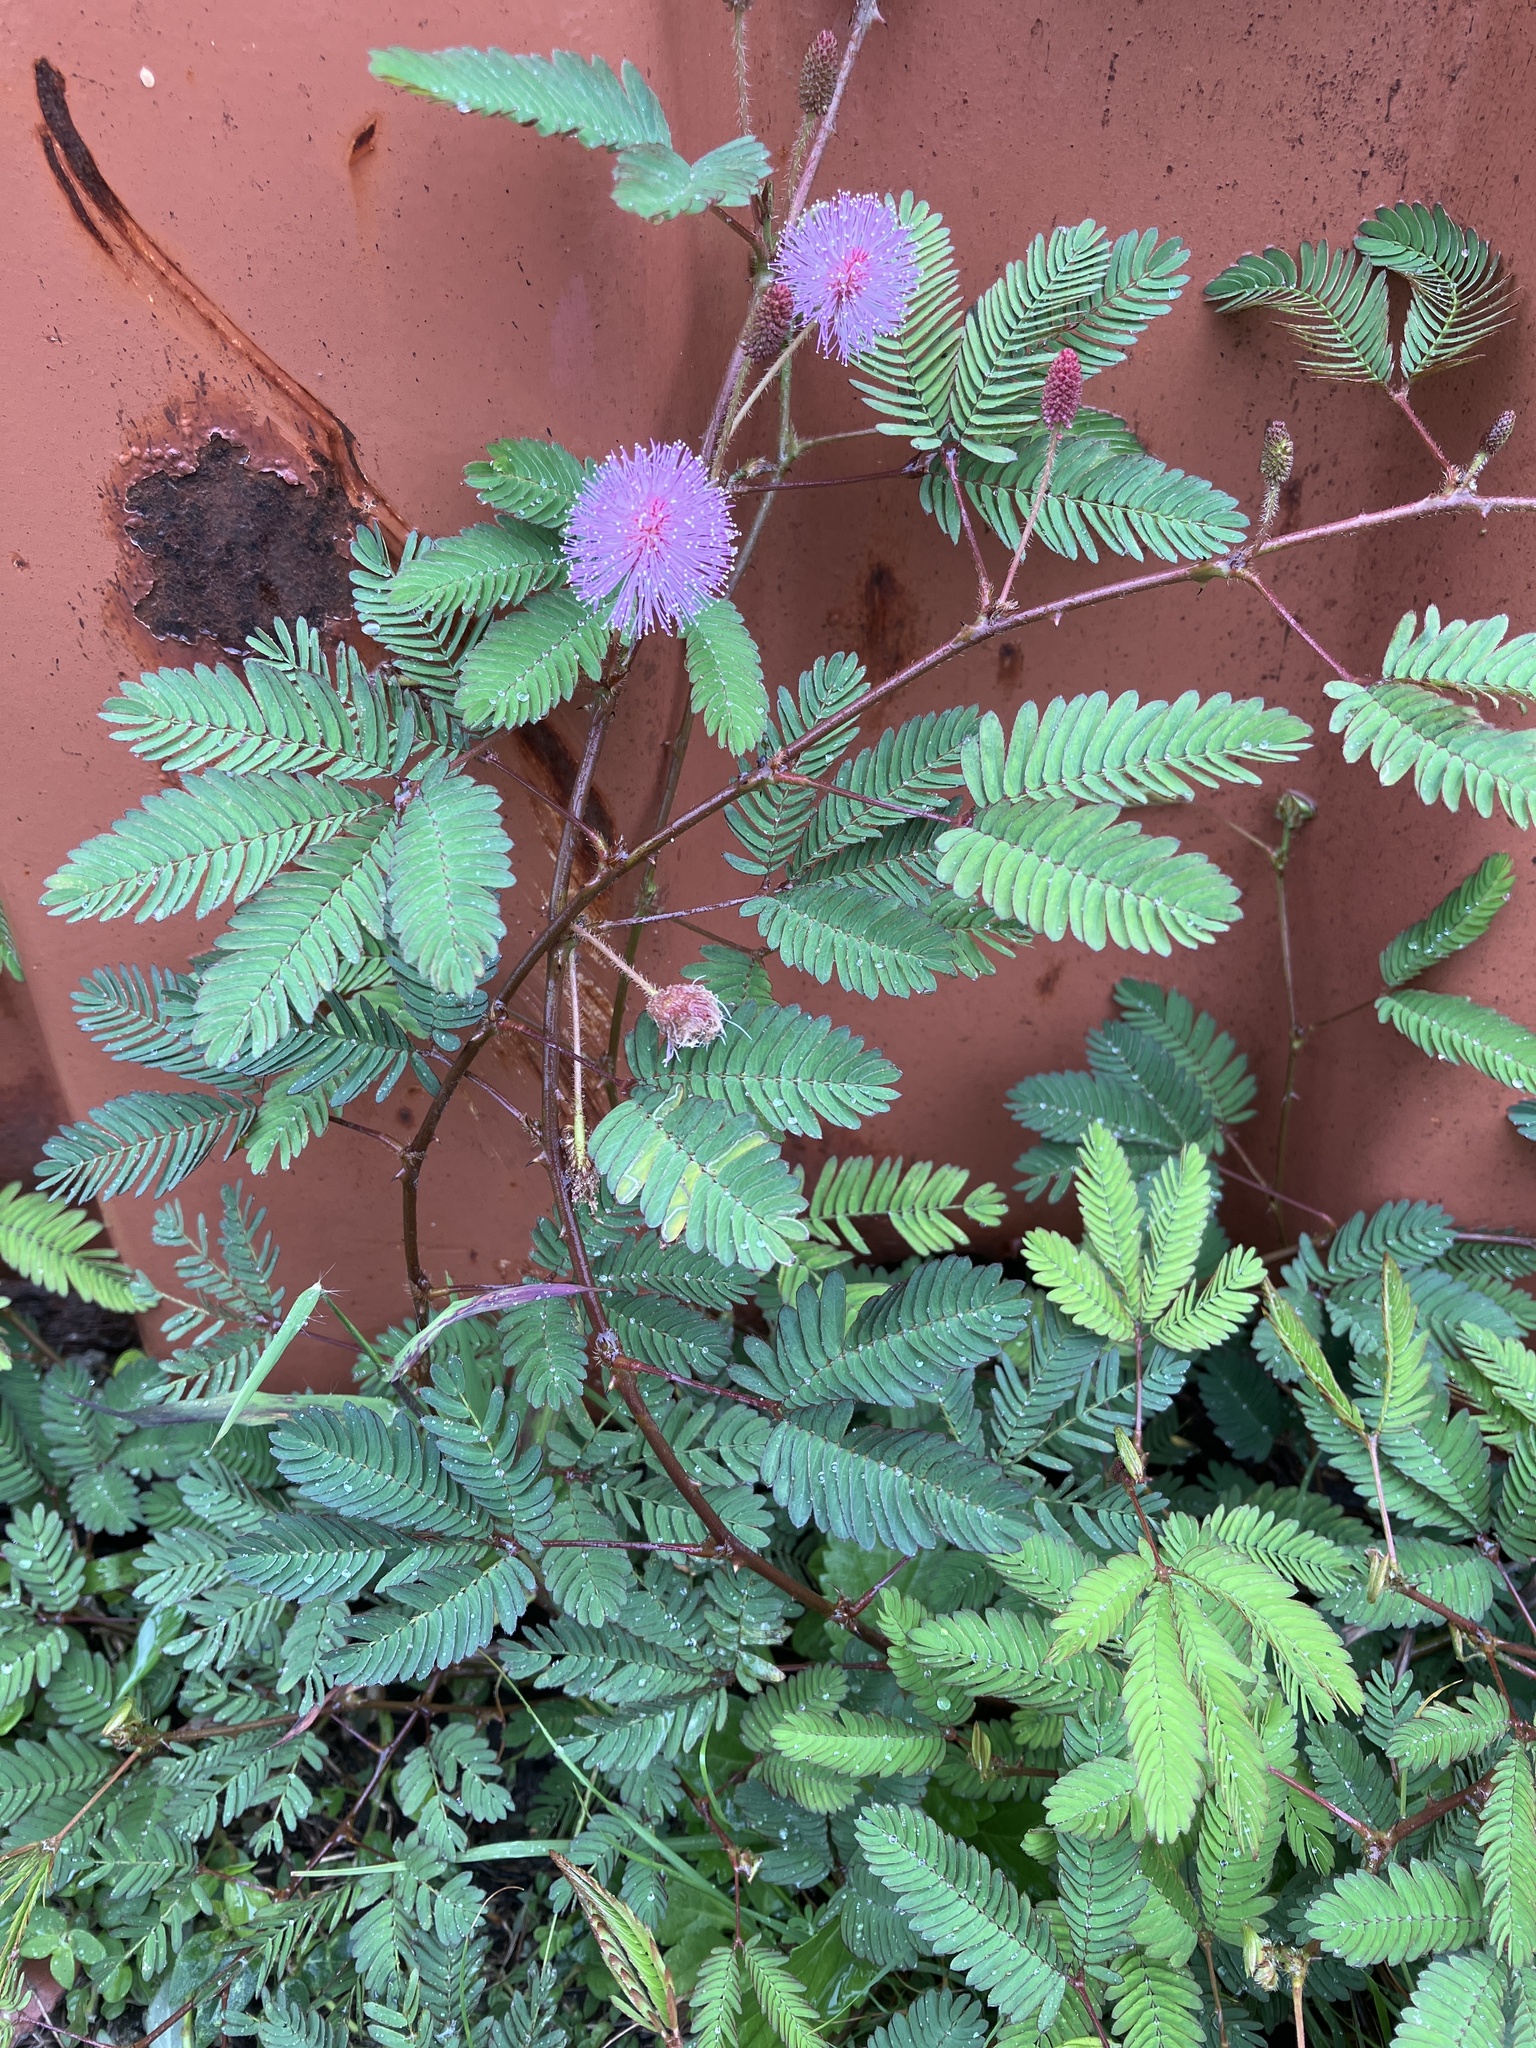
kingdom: Plantae
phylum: Tracheophyta
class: Magnoliopsida
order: Fabales
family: Fabaceae
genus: Mimosa
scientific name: Mimosa pudica
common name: Sensitive plant
